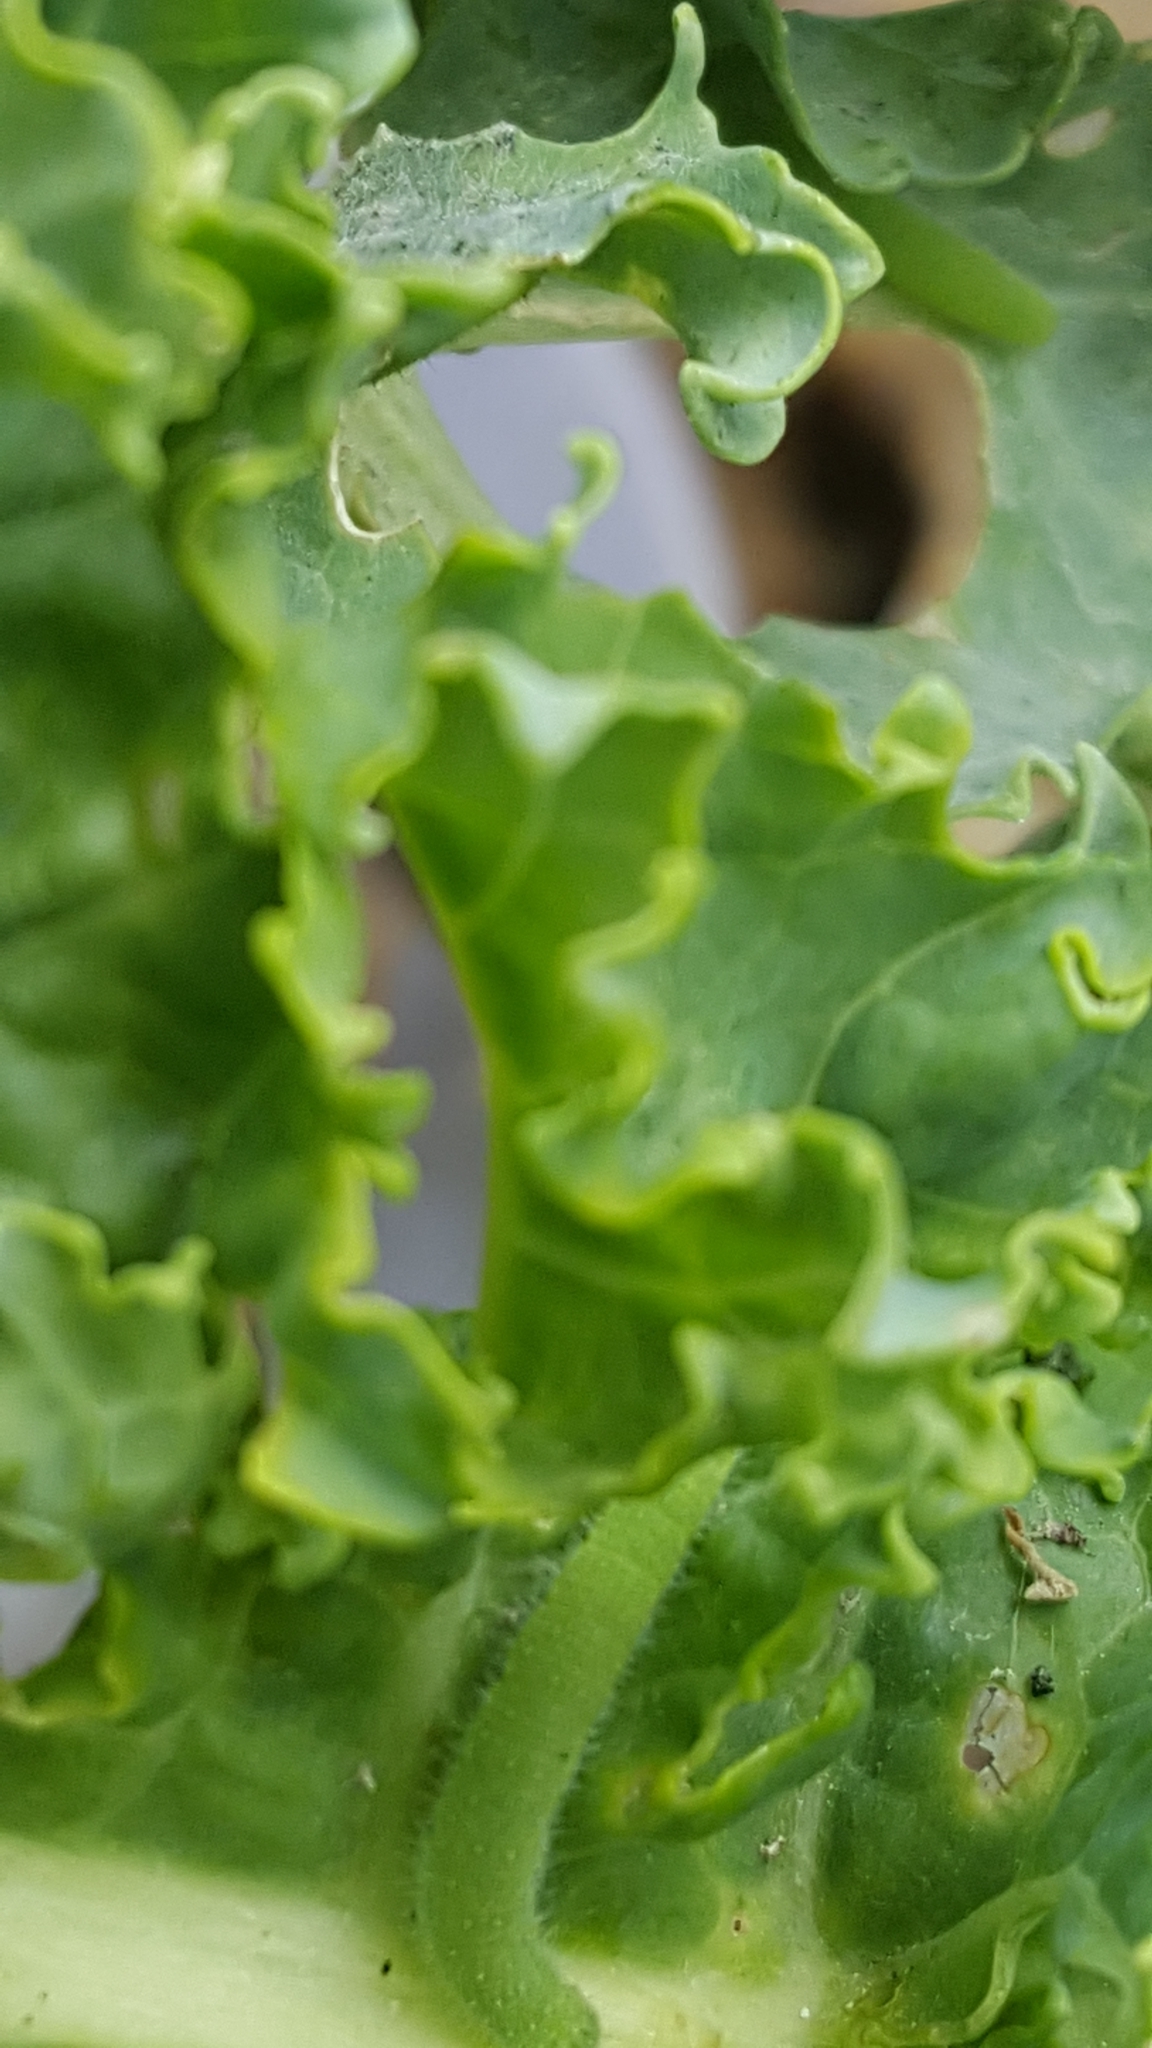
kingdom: Animalia
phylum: Arthropoda
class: Insecta
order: Lepidoptera
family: Pieridae
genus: Pieris
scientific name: Pieris rapae
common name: Small white
